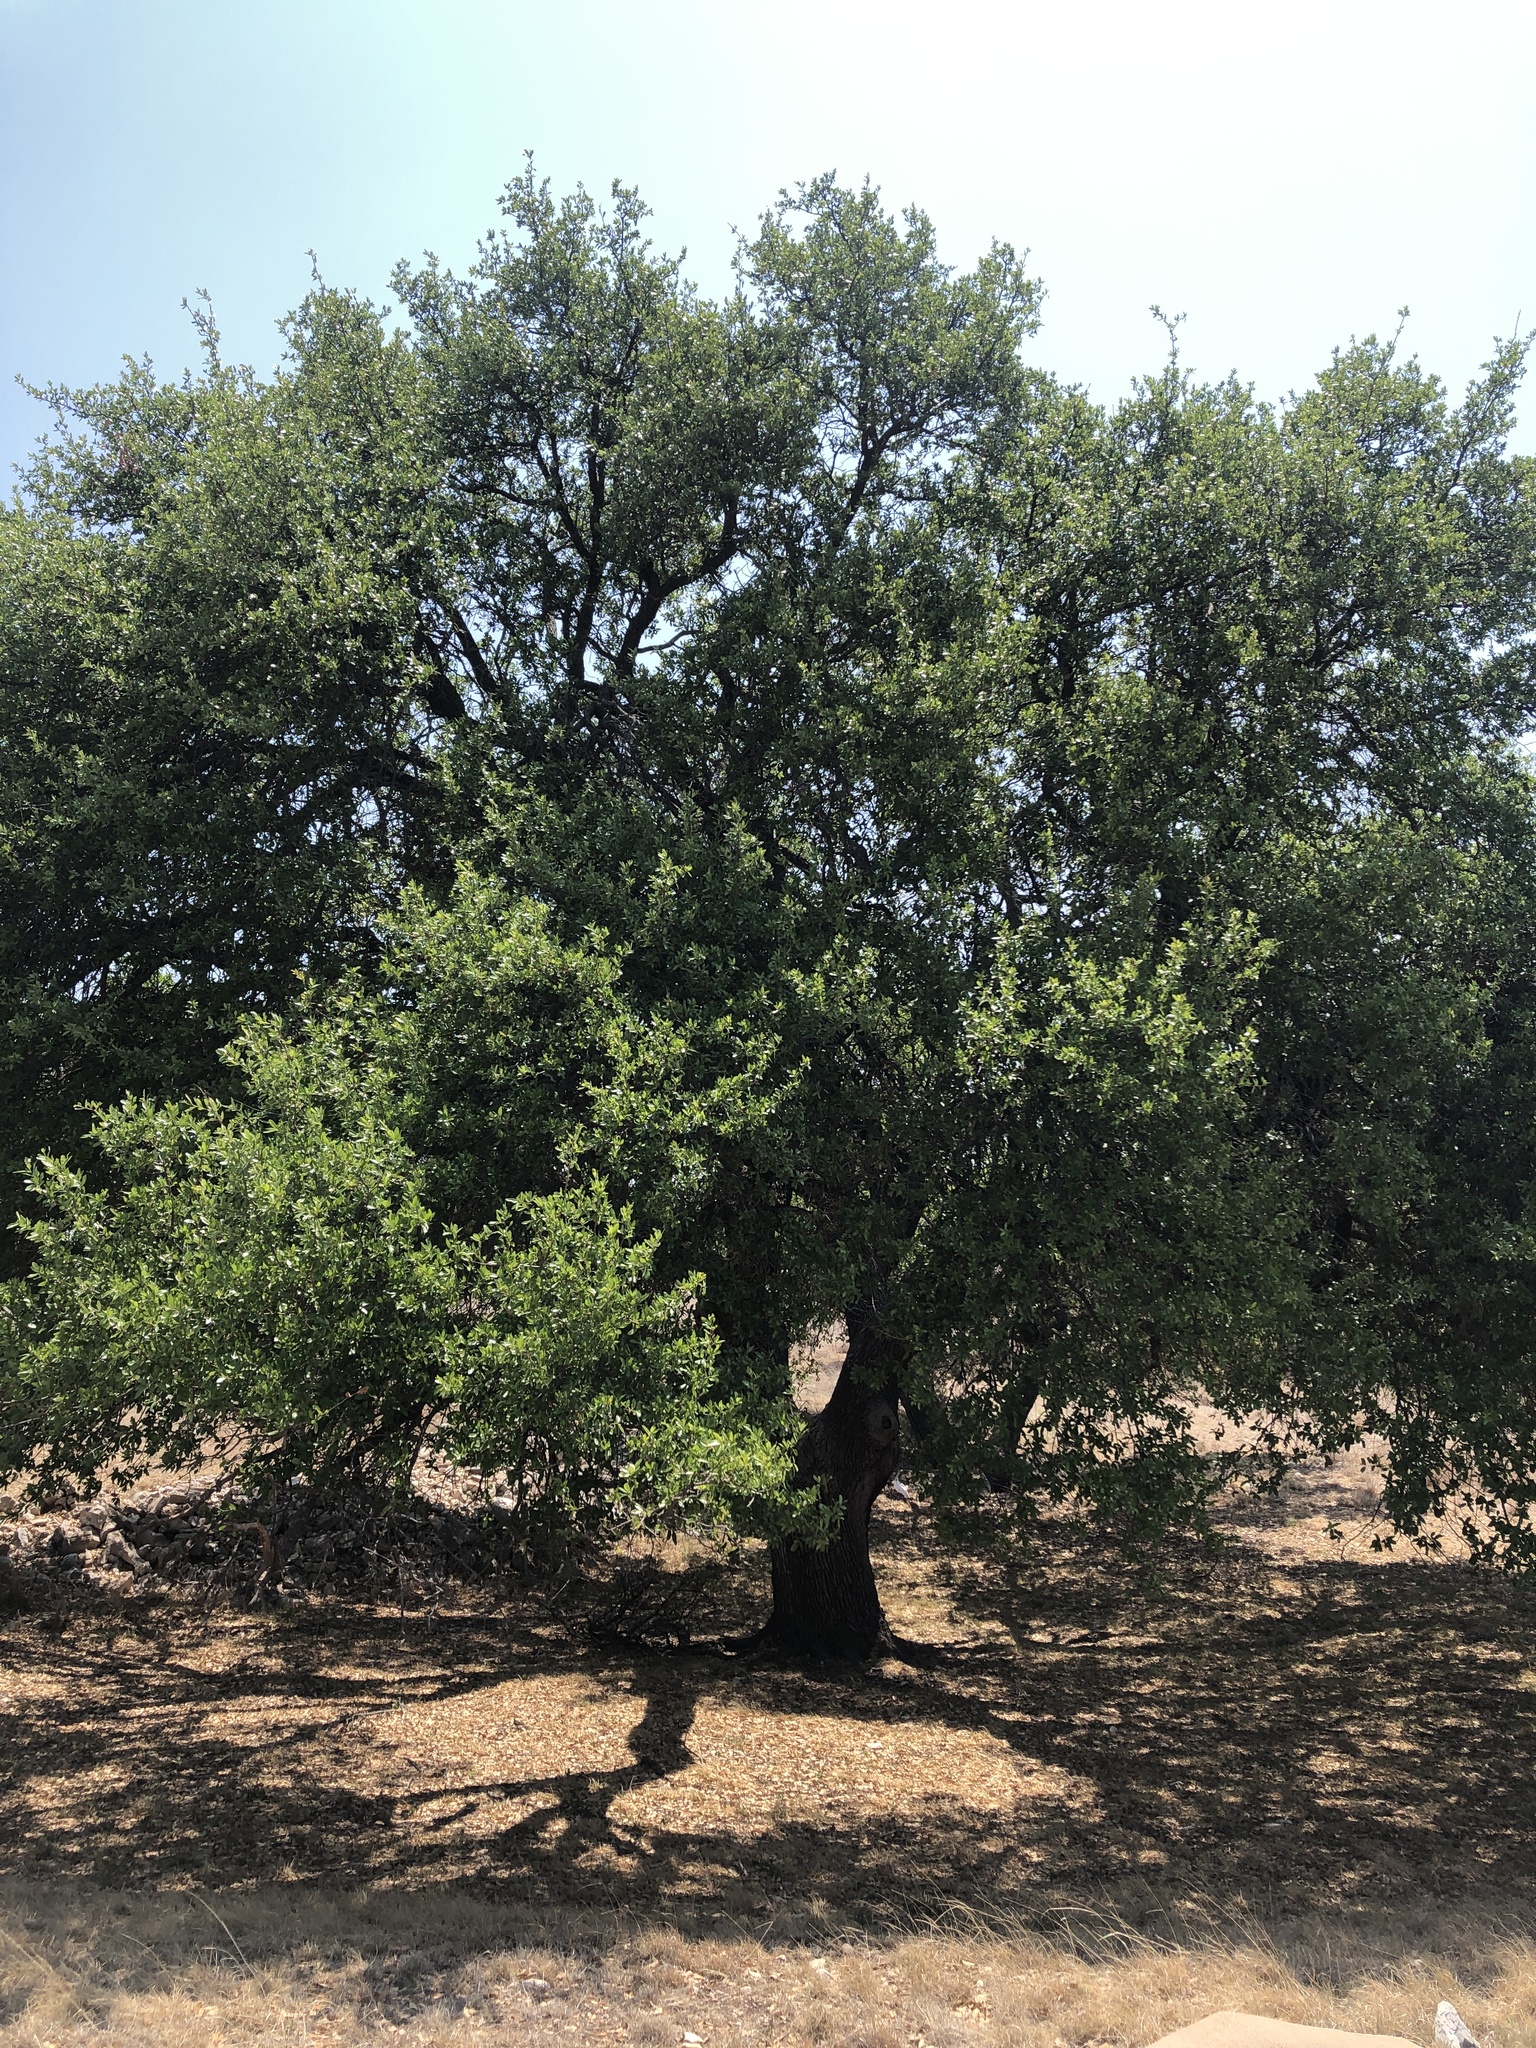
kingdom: Plantae
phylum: Tracheophyta
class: Magnoliopsida
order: Fagales
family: Fagaceae
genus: Quercus
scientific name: Quercus fusiformis
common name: Texas live oak
